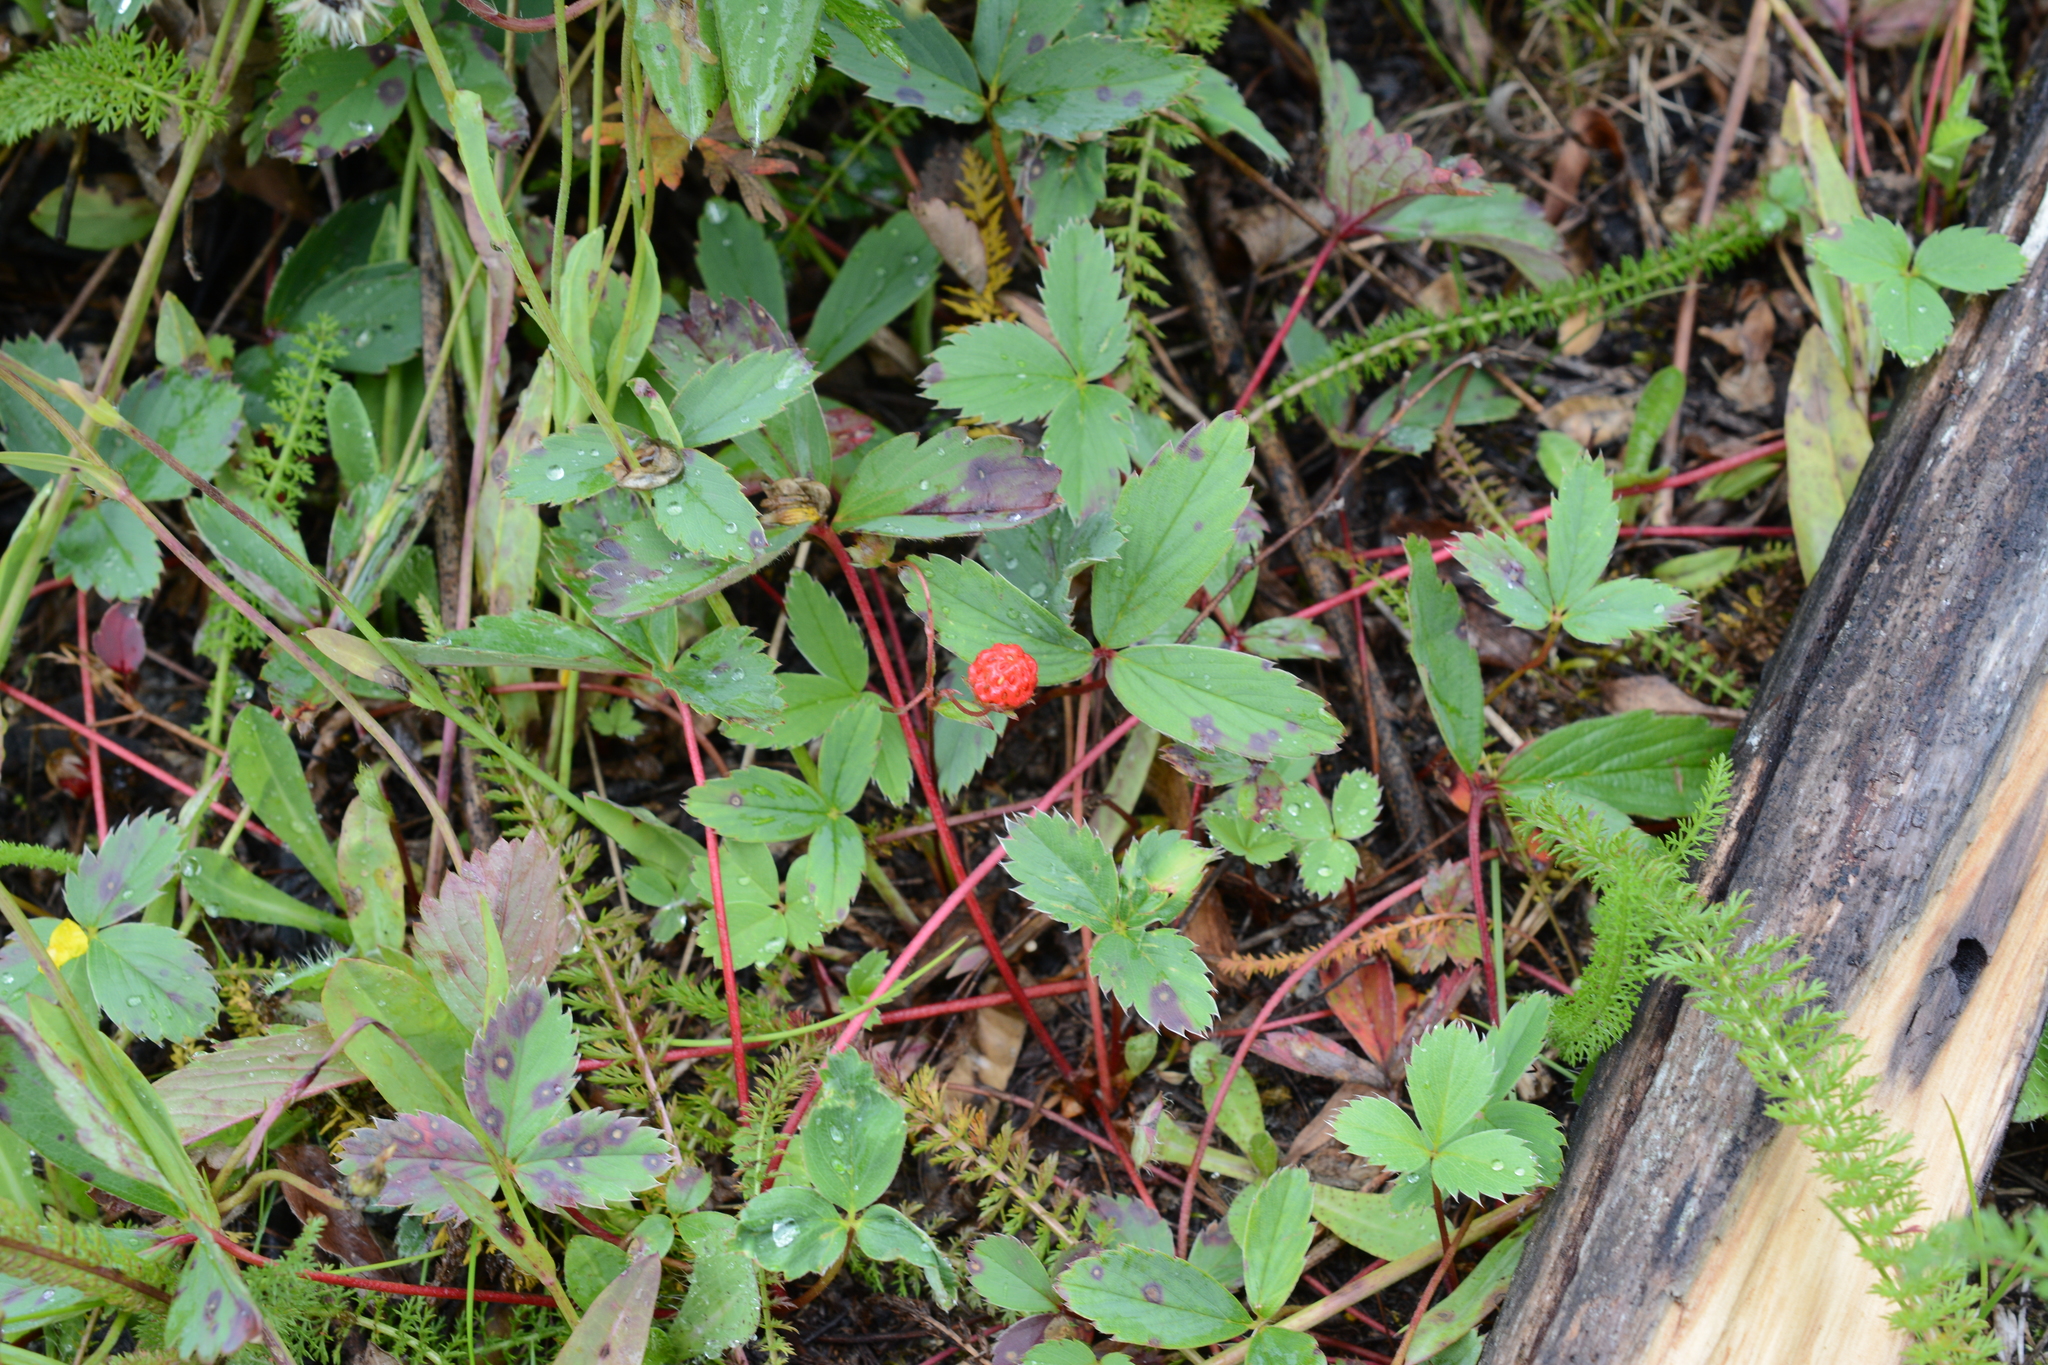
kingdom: Plantae
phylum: Tracheophyta
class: Magnoliopsida
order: Rosales
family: Rosaceae
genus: Fragaria
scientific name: Fragaria virginiana
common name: Thickleaved wild strawberry
